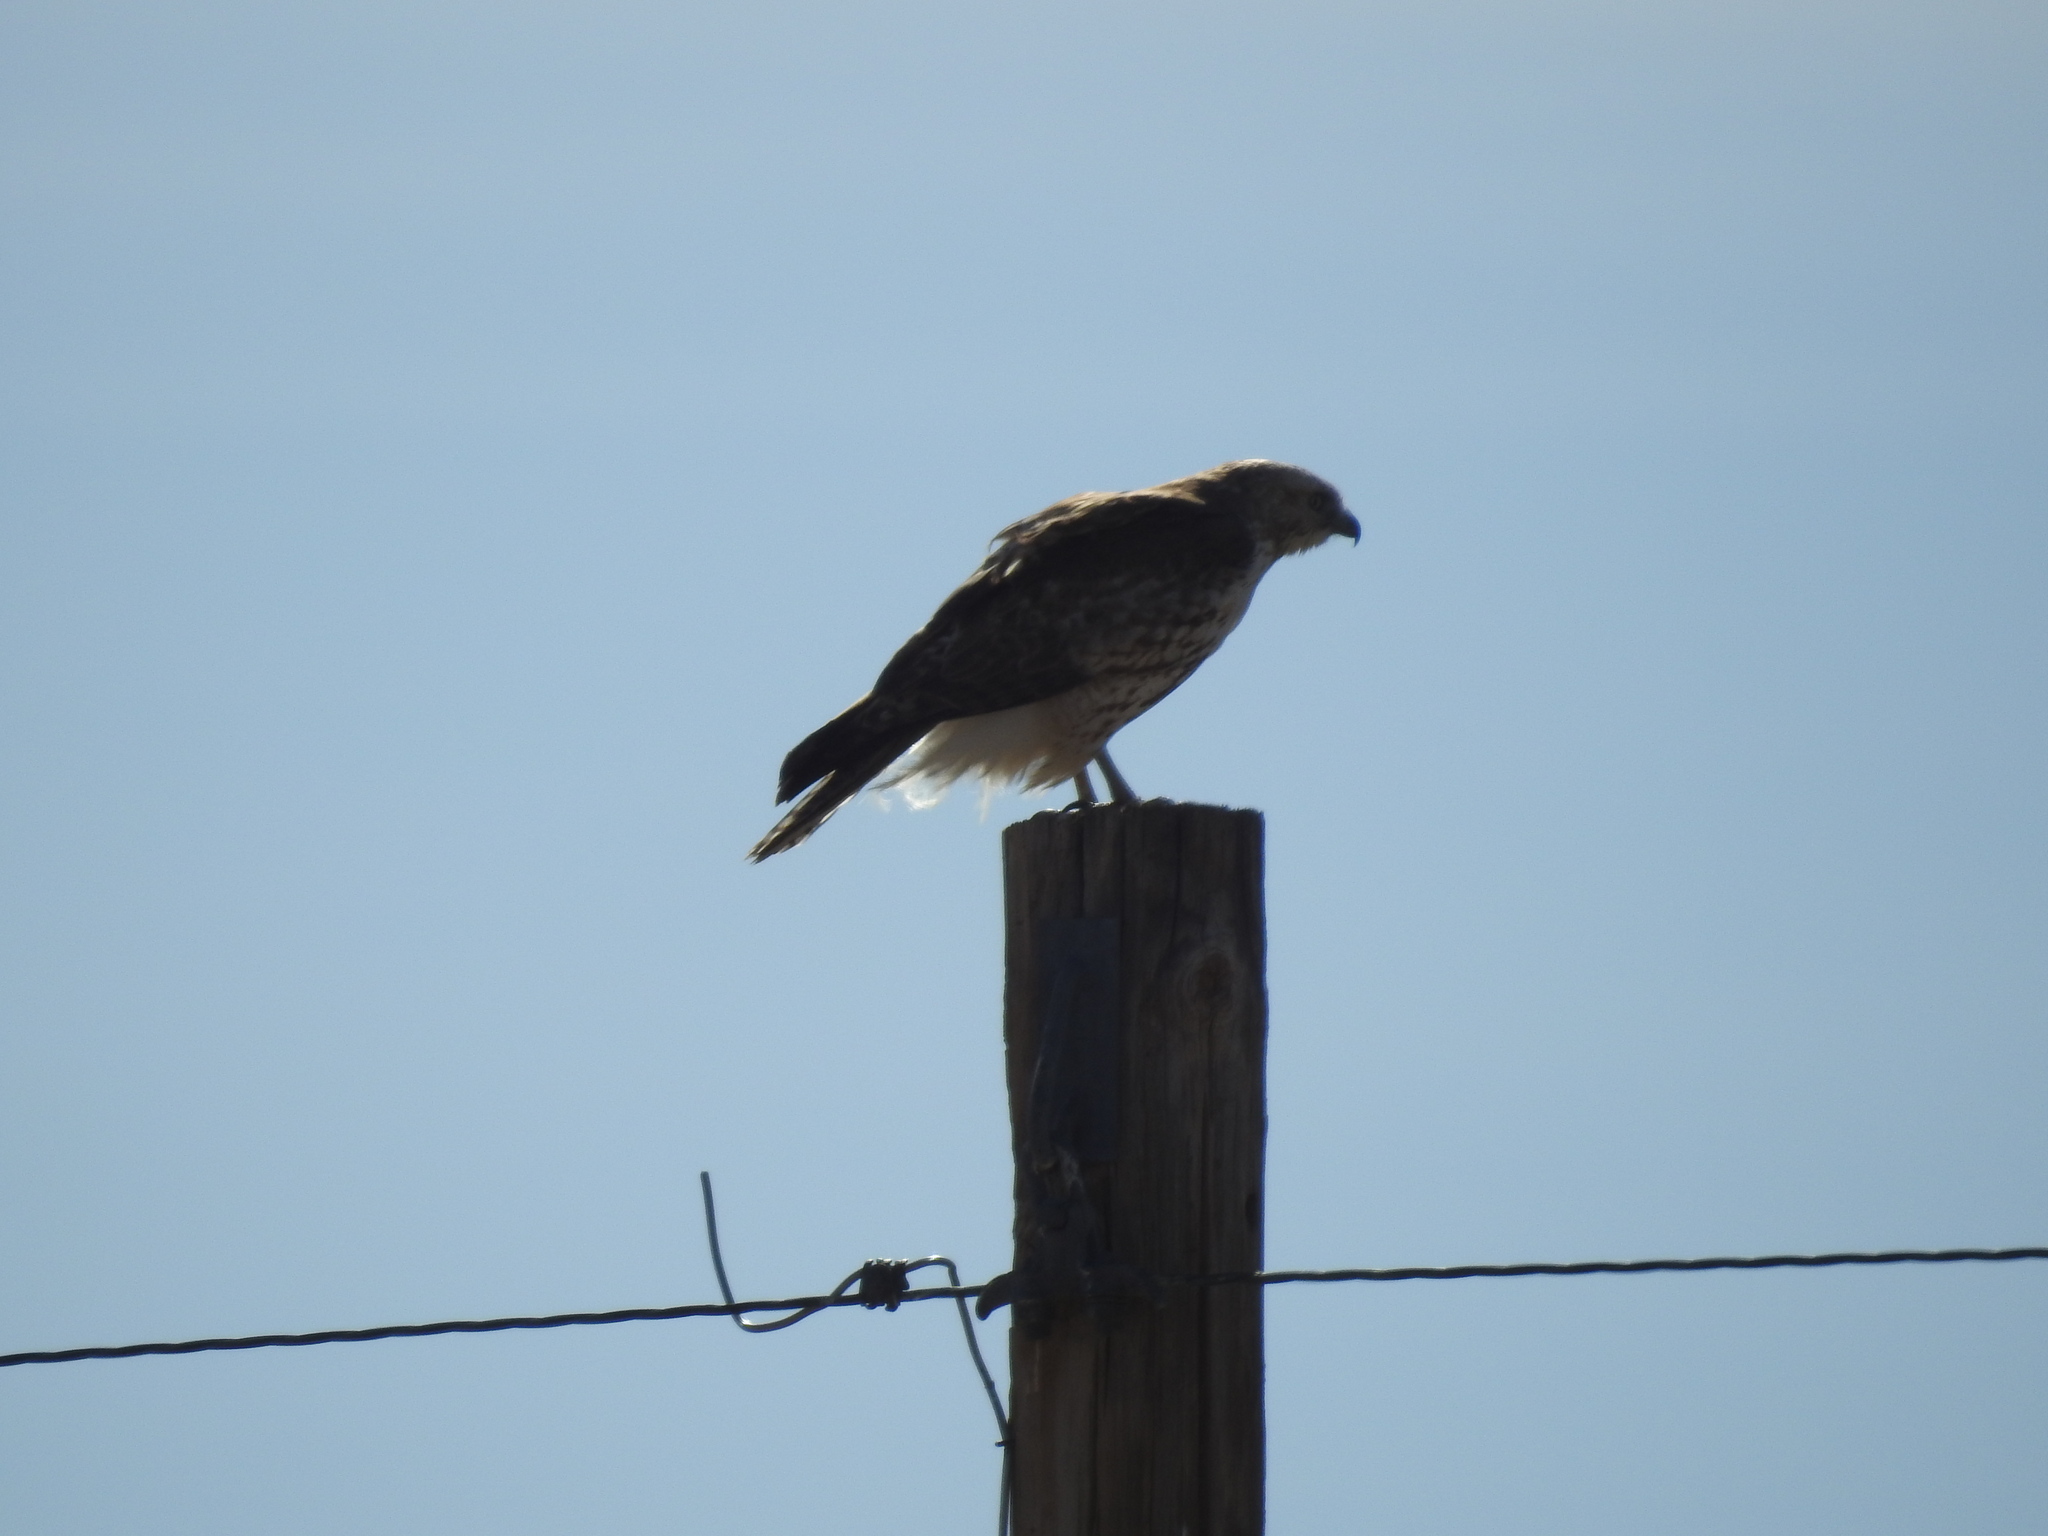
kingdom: Animalia
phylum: Chordata
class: Aves
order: Accipitriformes
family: Accipitridae
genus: Buteo
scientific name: Buteo jamaicensis
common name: Red-tailed hawk
